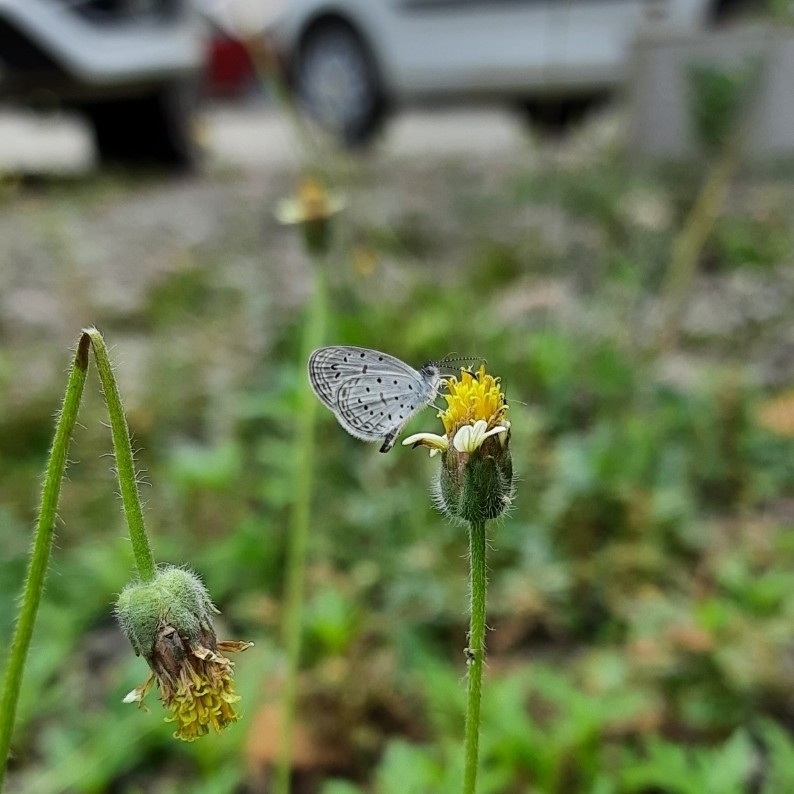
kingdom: Animalia
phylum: Arthropoda
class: Insecta
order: Lepidoptera
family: Lycaenidae
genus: Zizula
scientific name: Zizula hylax
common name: Gaika blue
